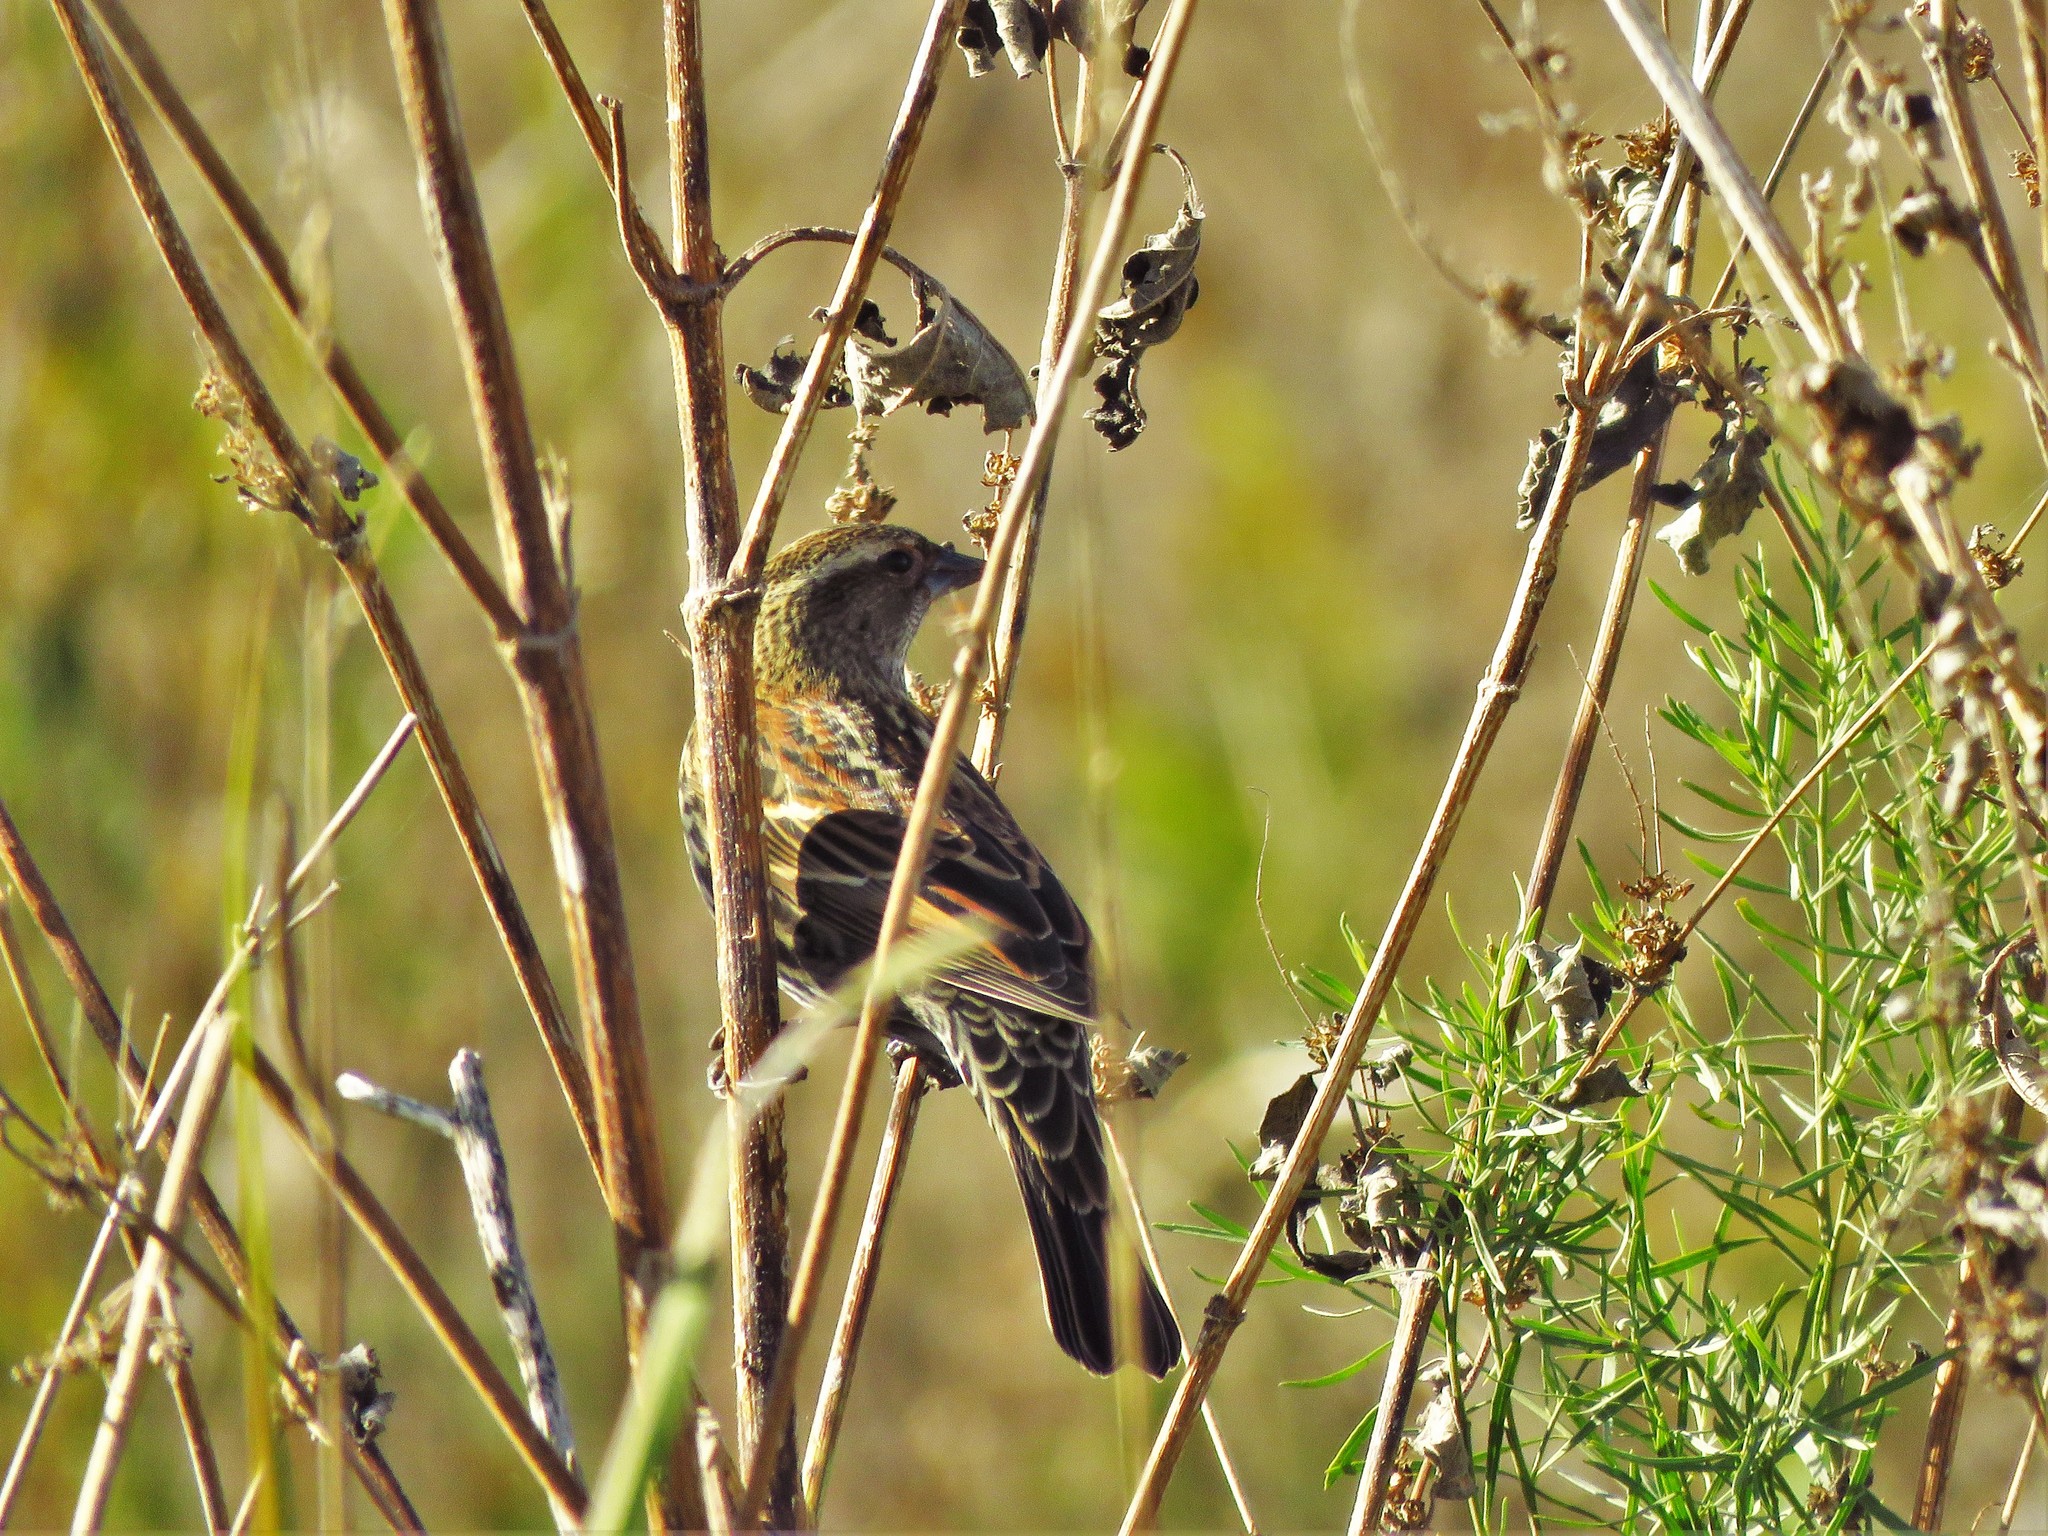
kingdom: Animalia
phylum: Chordata
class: Aves
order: Passeriformes
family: Icteridae
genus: Agelaius
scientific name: Agelaius phoeniceus
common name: Red-winged blackbird
